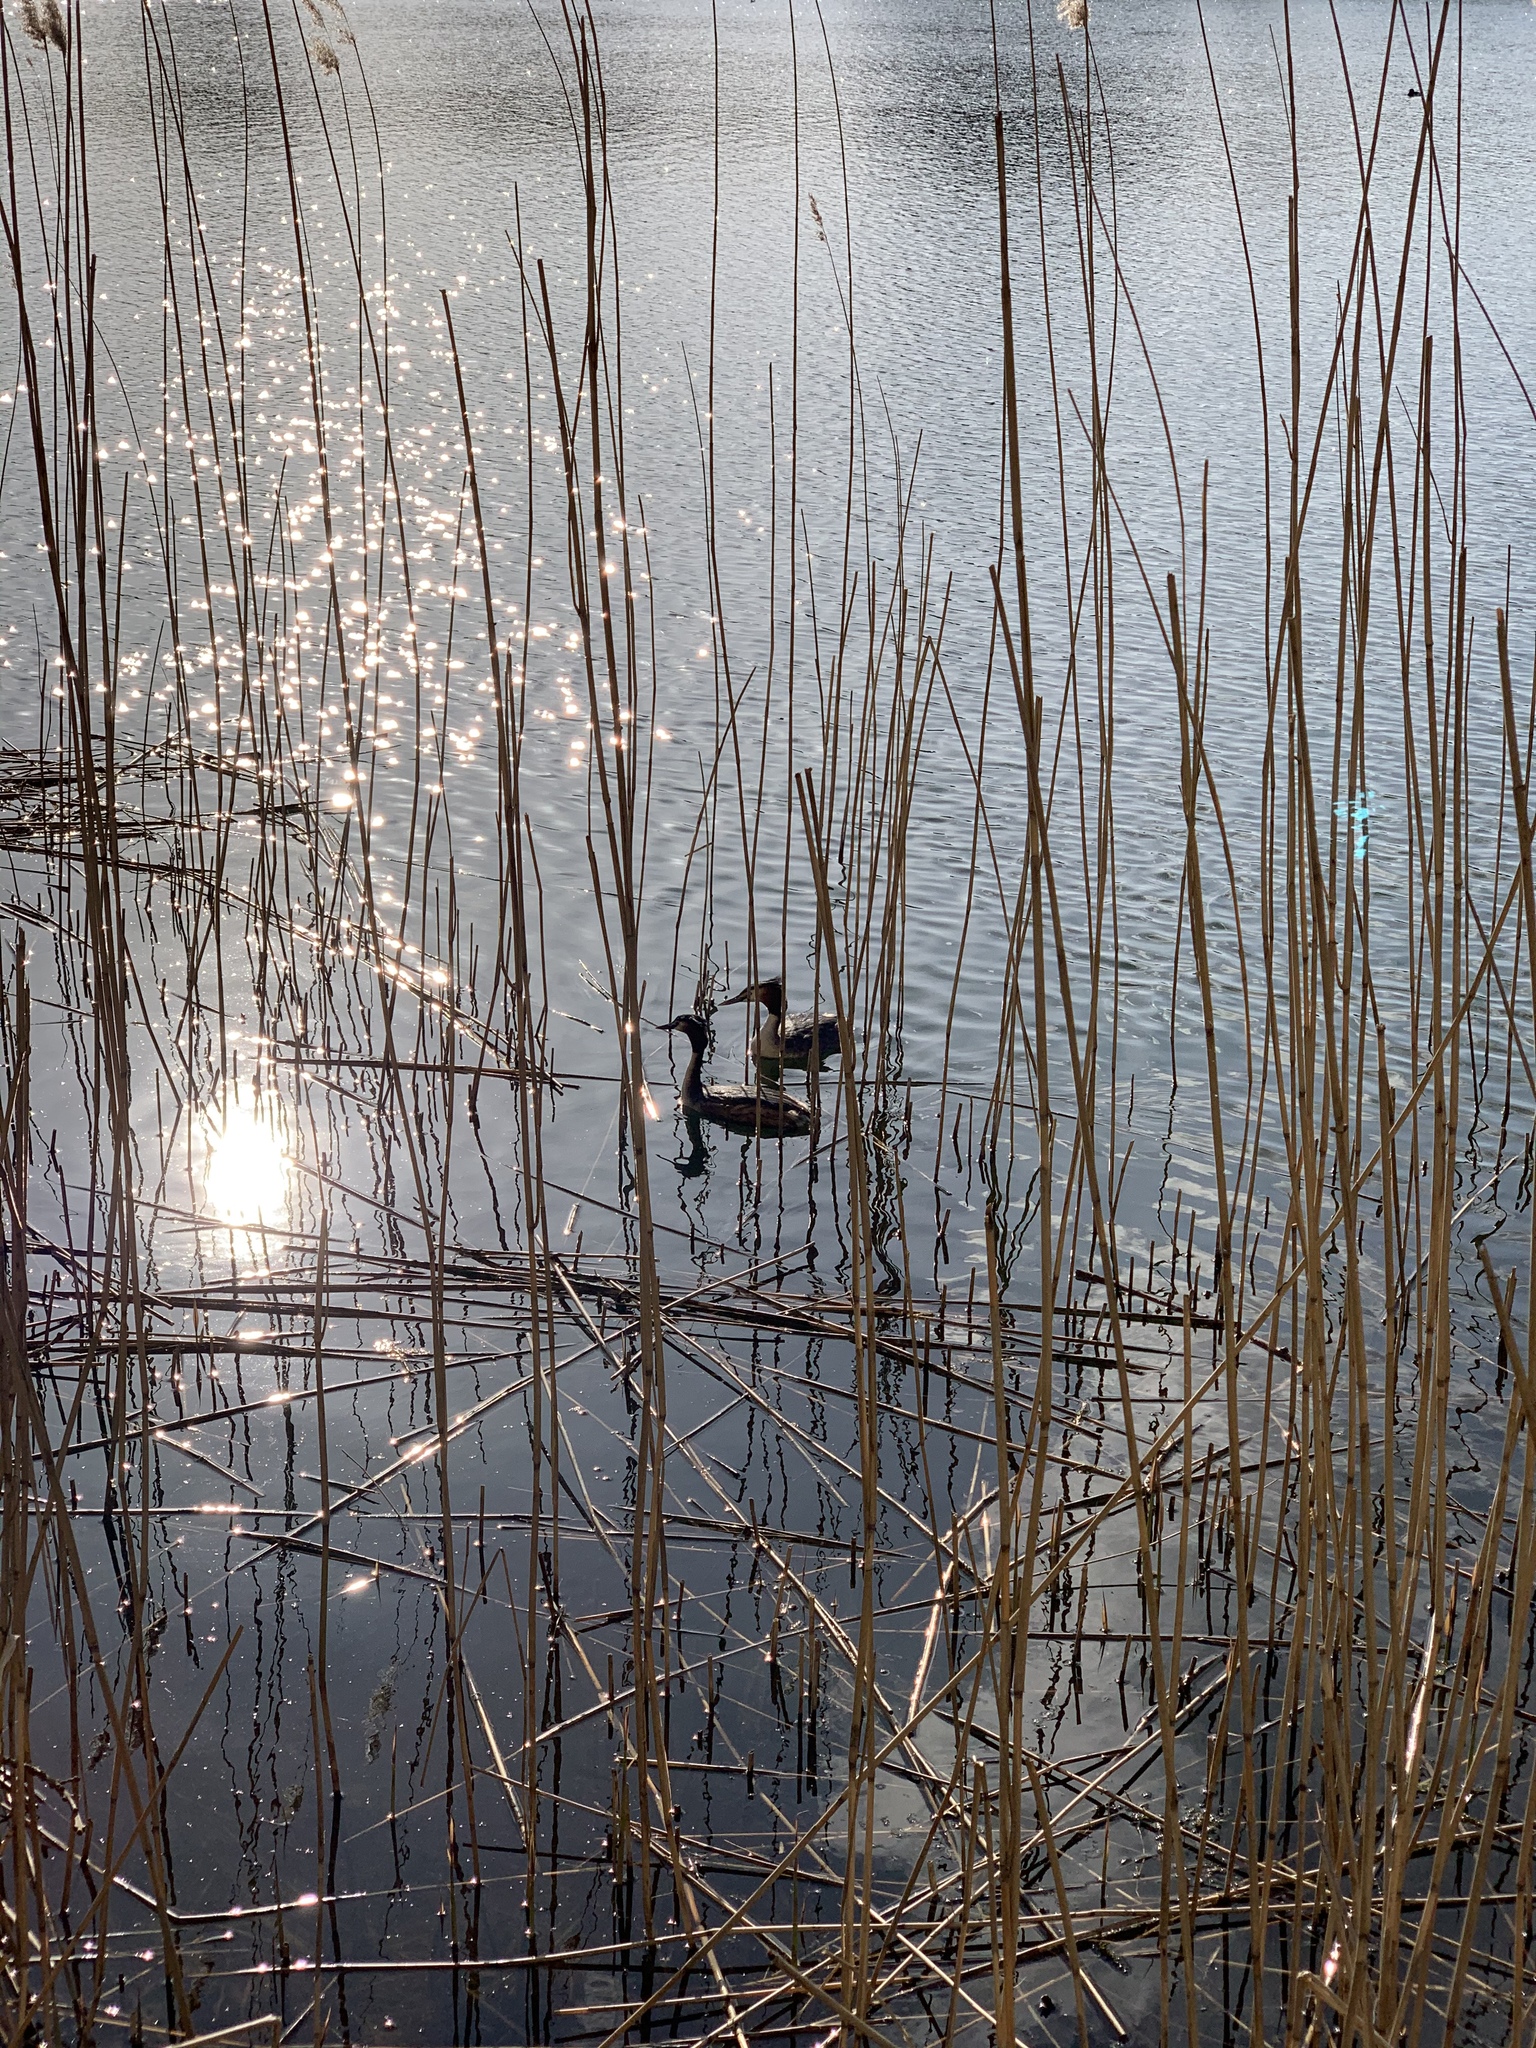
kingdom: Animalia
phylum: Chordata
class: Aves
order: Podicipediformes
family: Podicipedidae
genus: Podiceps
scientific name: Podiceps cristatus
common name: Great crested grebe
